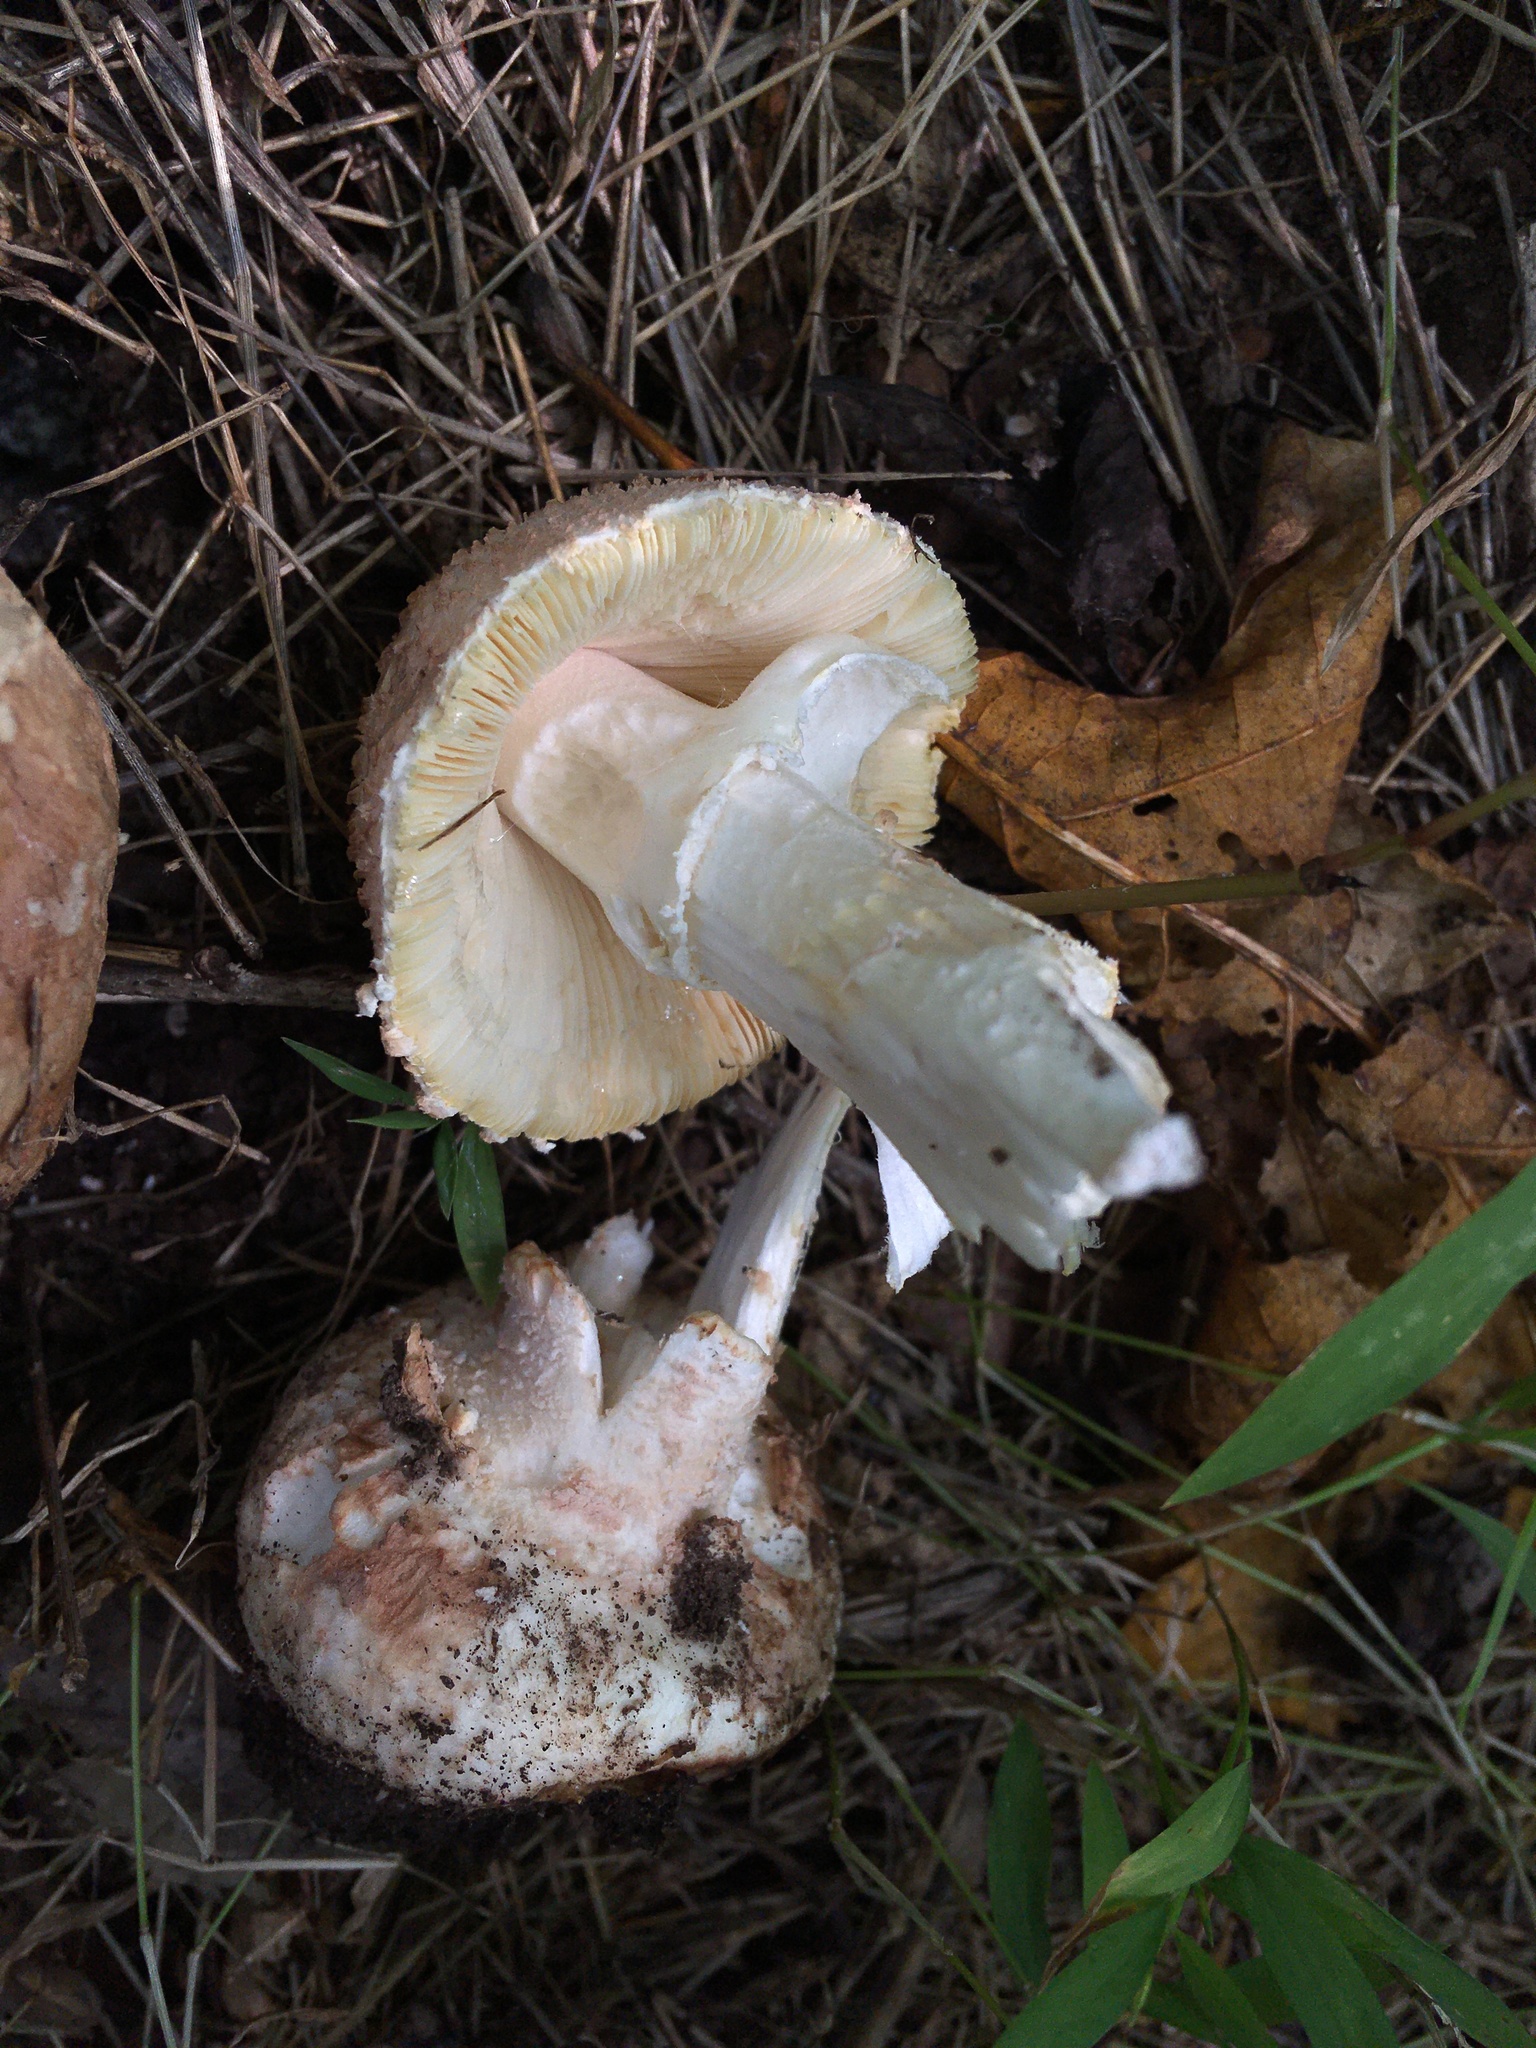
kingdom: Fungi
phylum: Basidiomycota
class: Agaricomycetes
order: Agaricales
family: Amanitaceae
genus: Amanita
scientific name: Amanita daucipes
